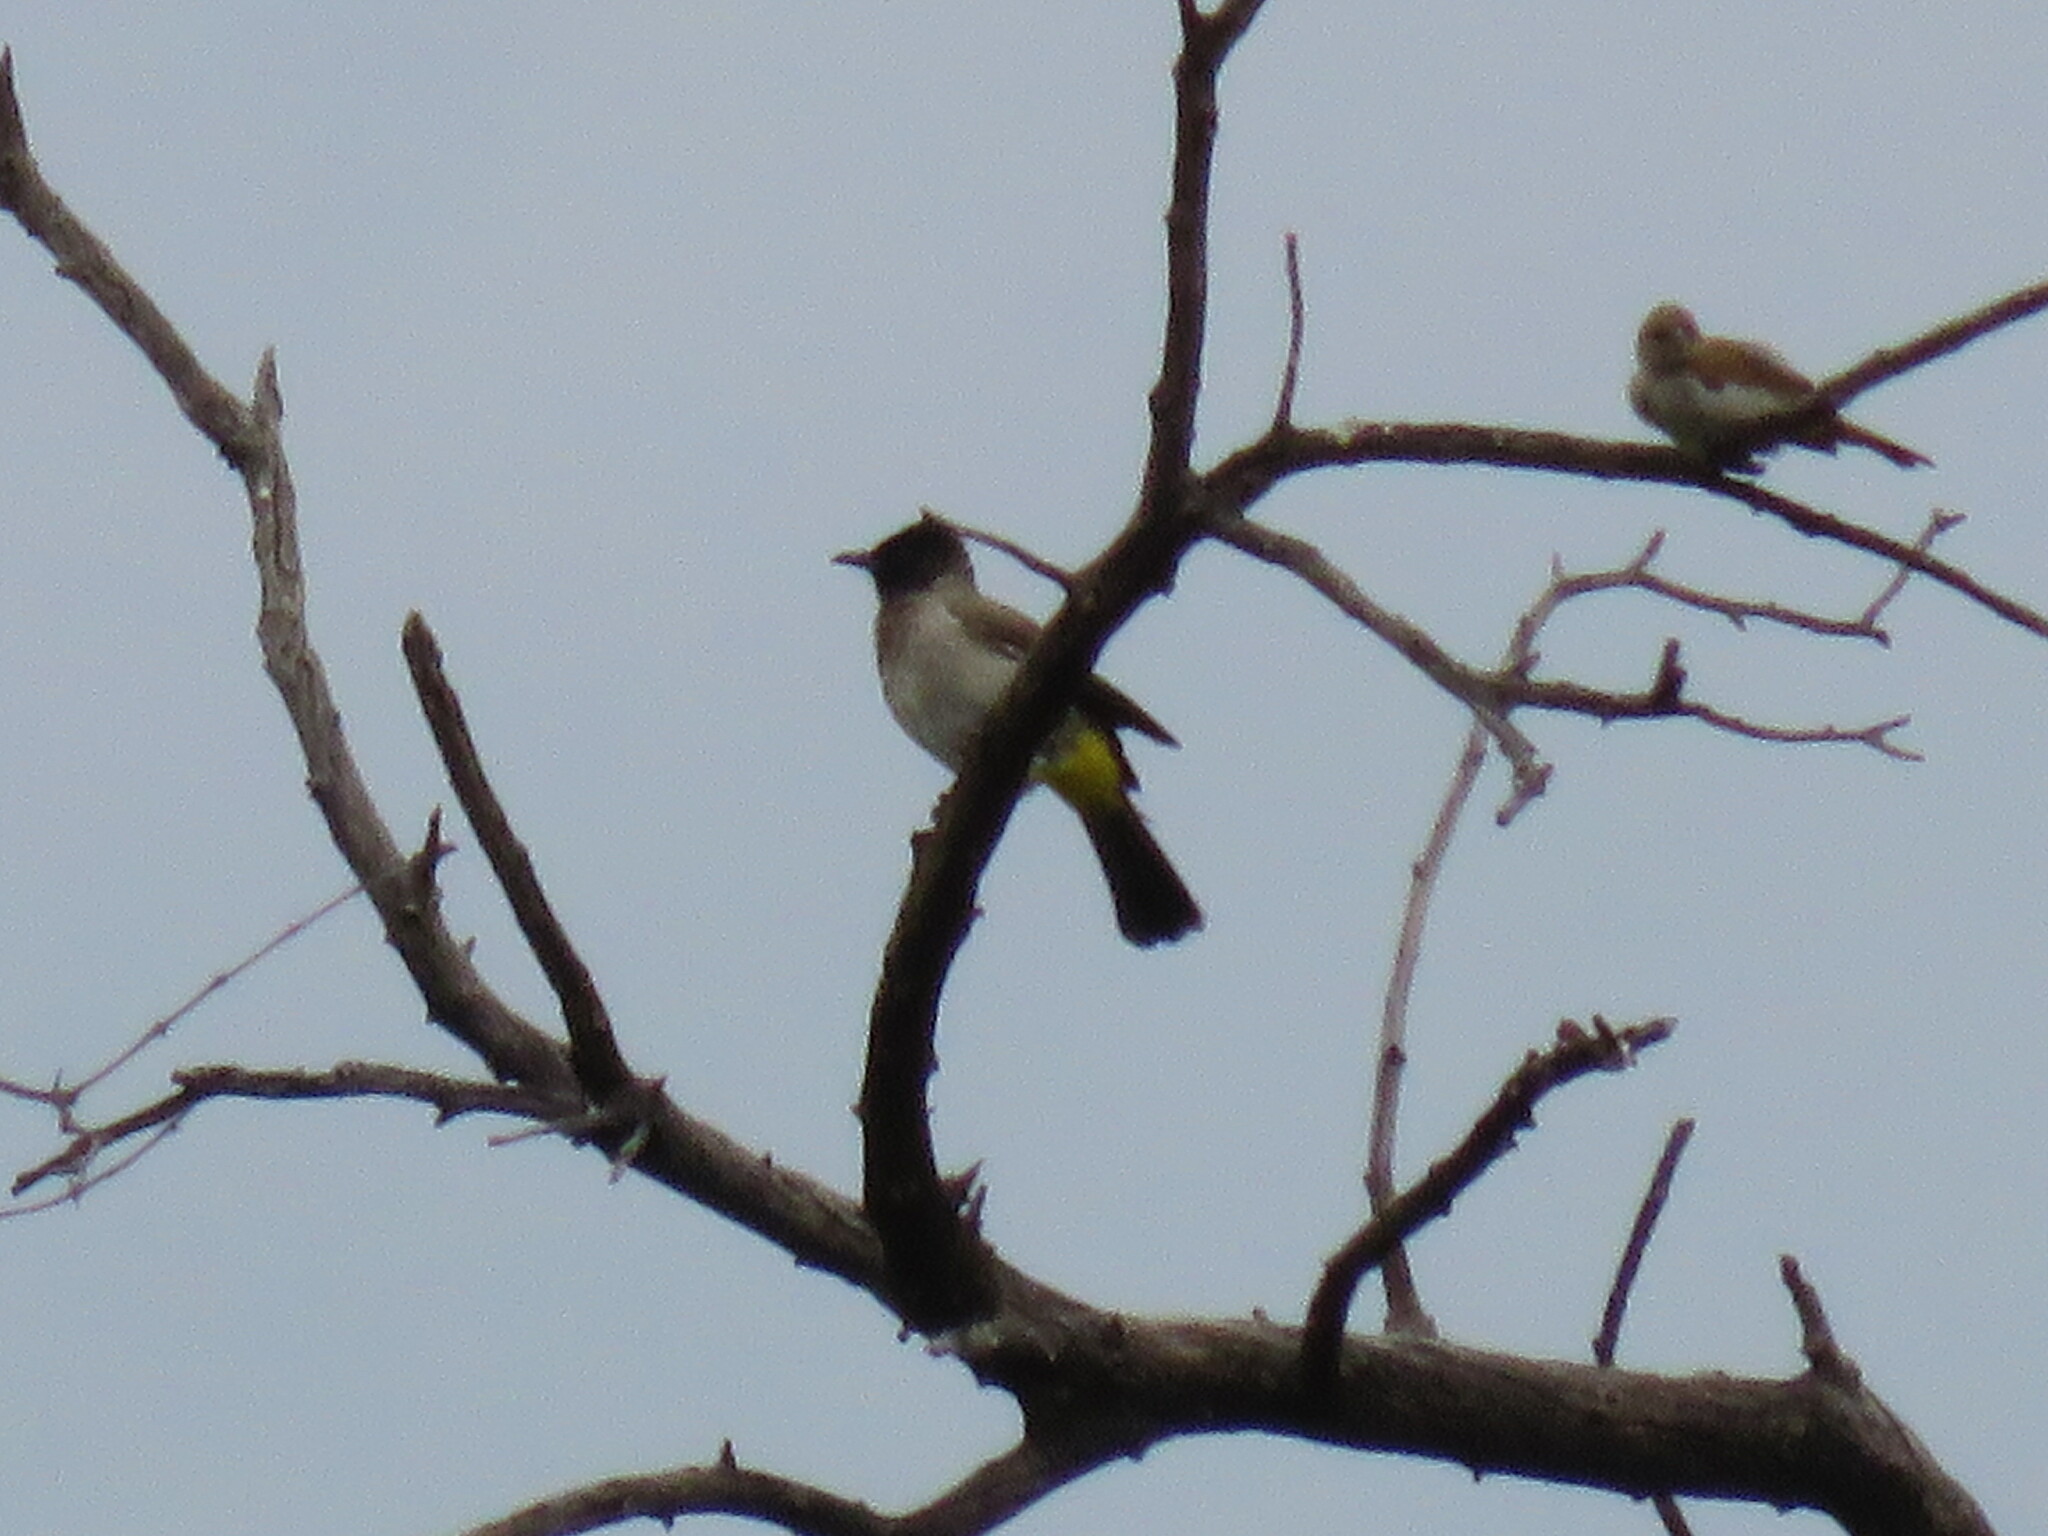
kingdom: Animalia
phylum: Chordata
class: Aves
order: Passeriformes
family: Pycnonotidae
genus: Pycnonotus
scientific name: Pycnonotus barbatus
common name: Common bulbul
